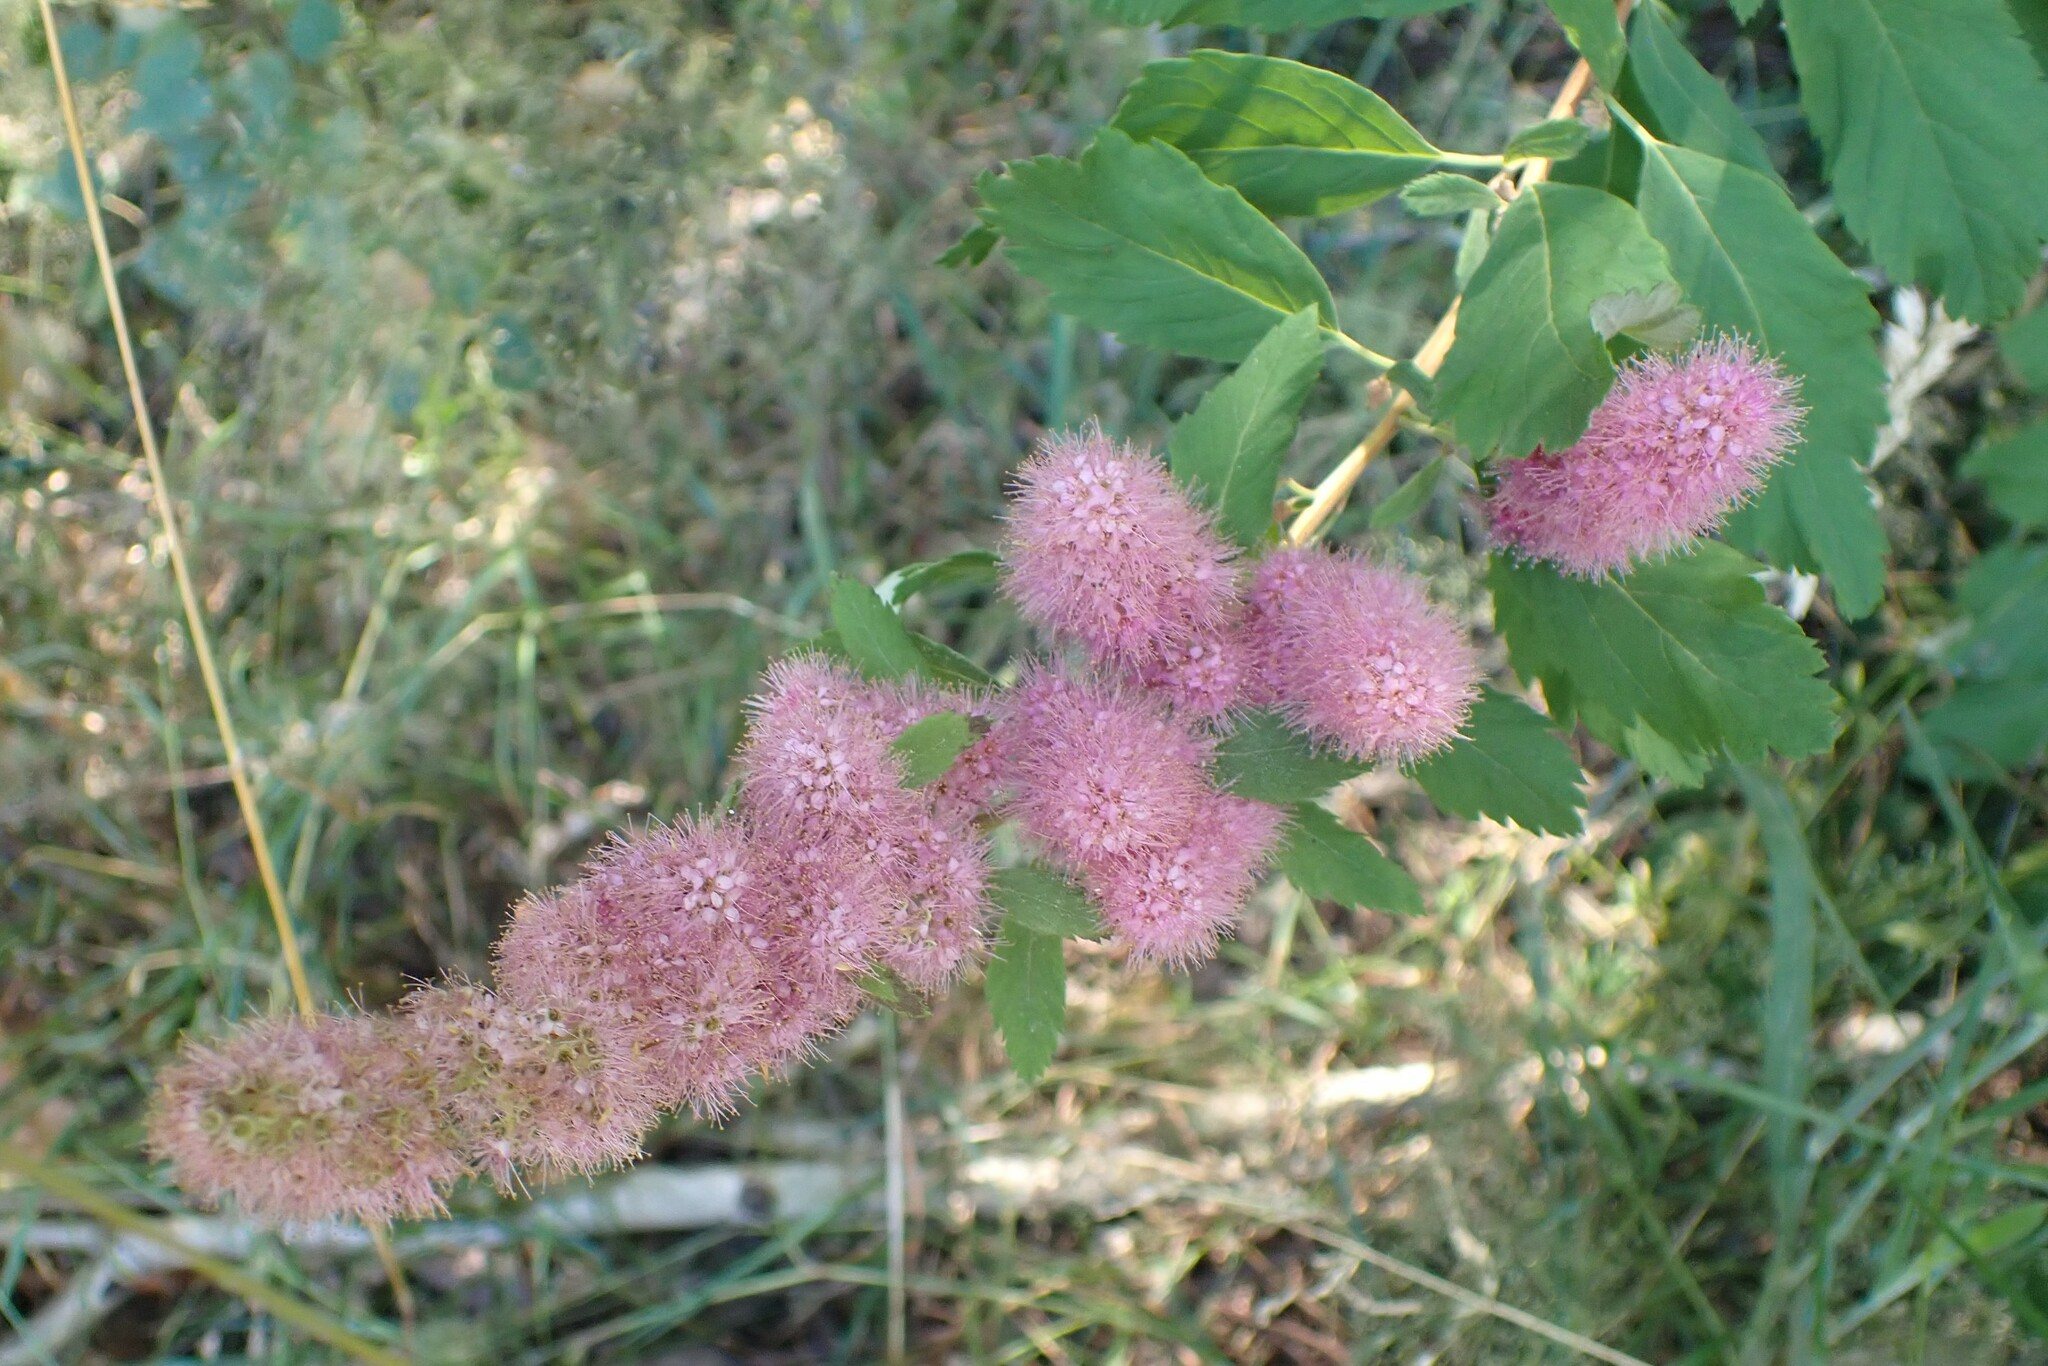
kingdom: Plantae
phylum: Tracheophyta
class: Magnoliopsida
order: Rosales
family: Rosaceae
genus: Spiraea
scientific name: Spiraea douglasii
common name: Steeplebush
